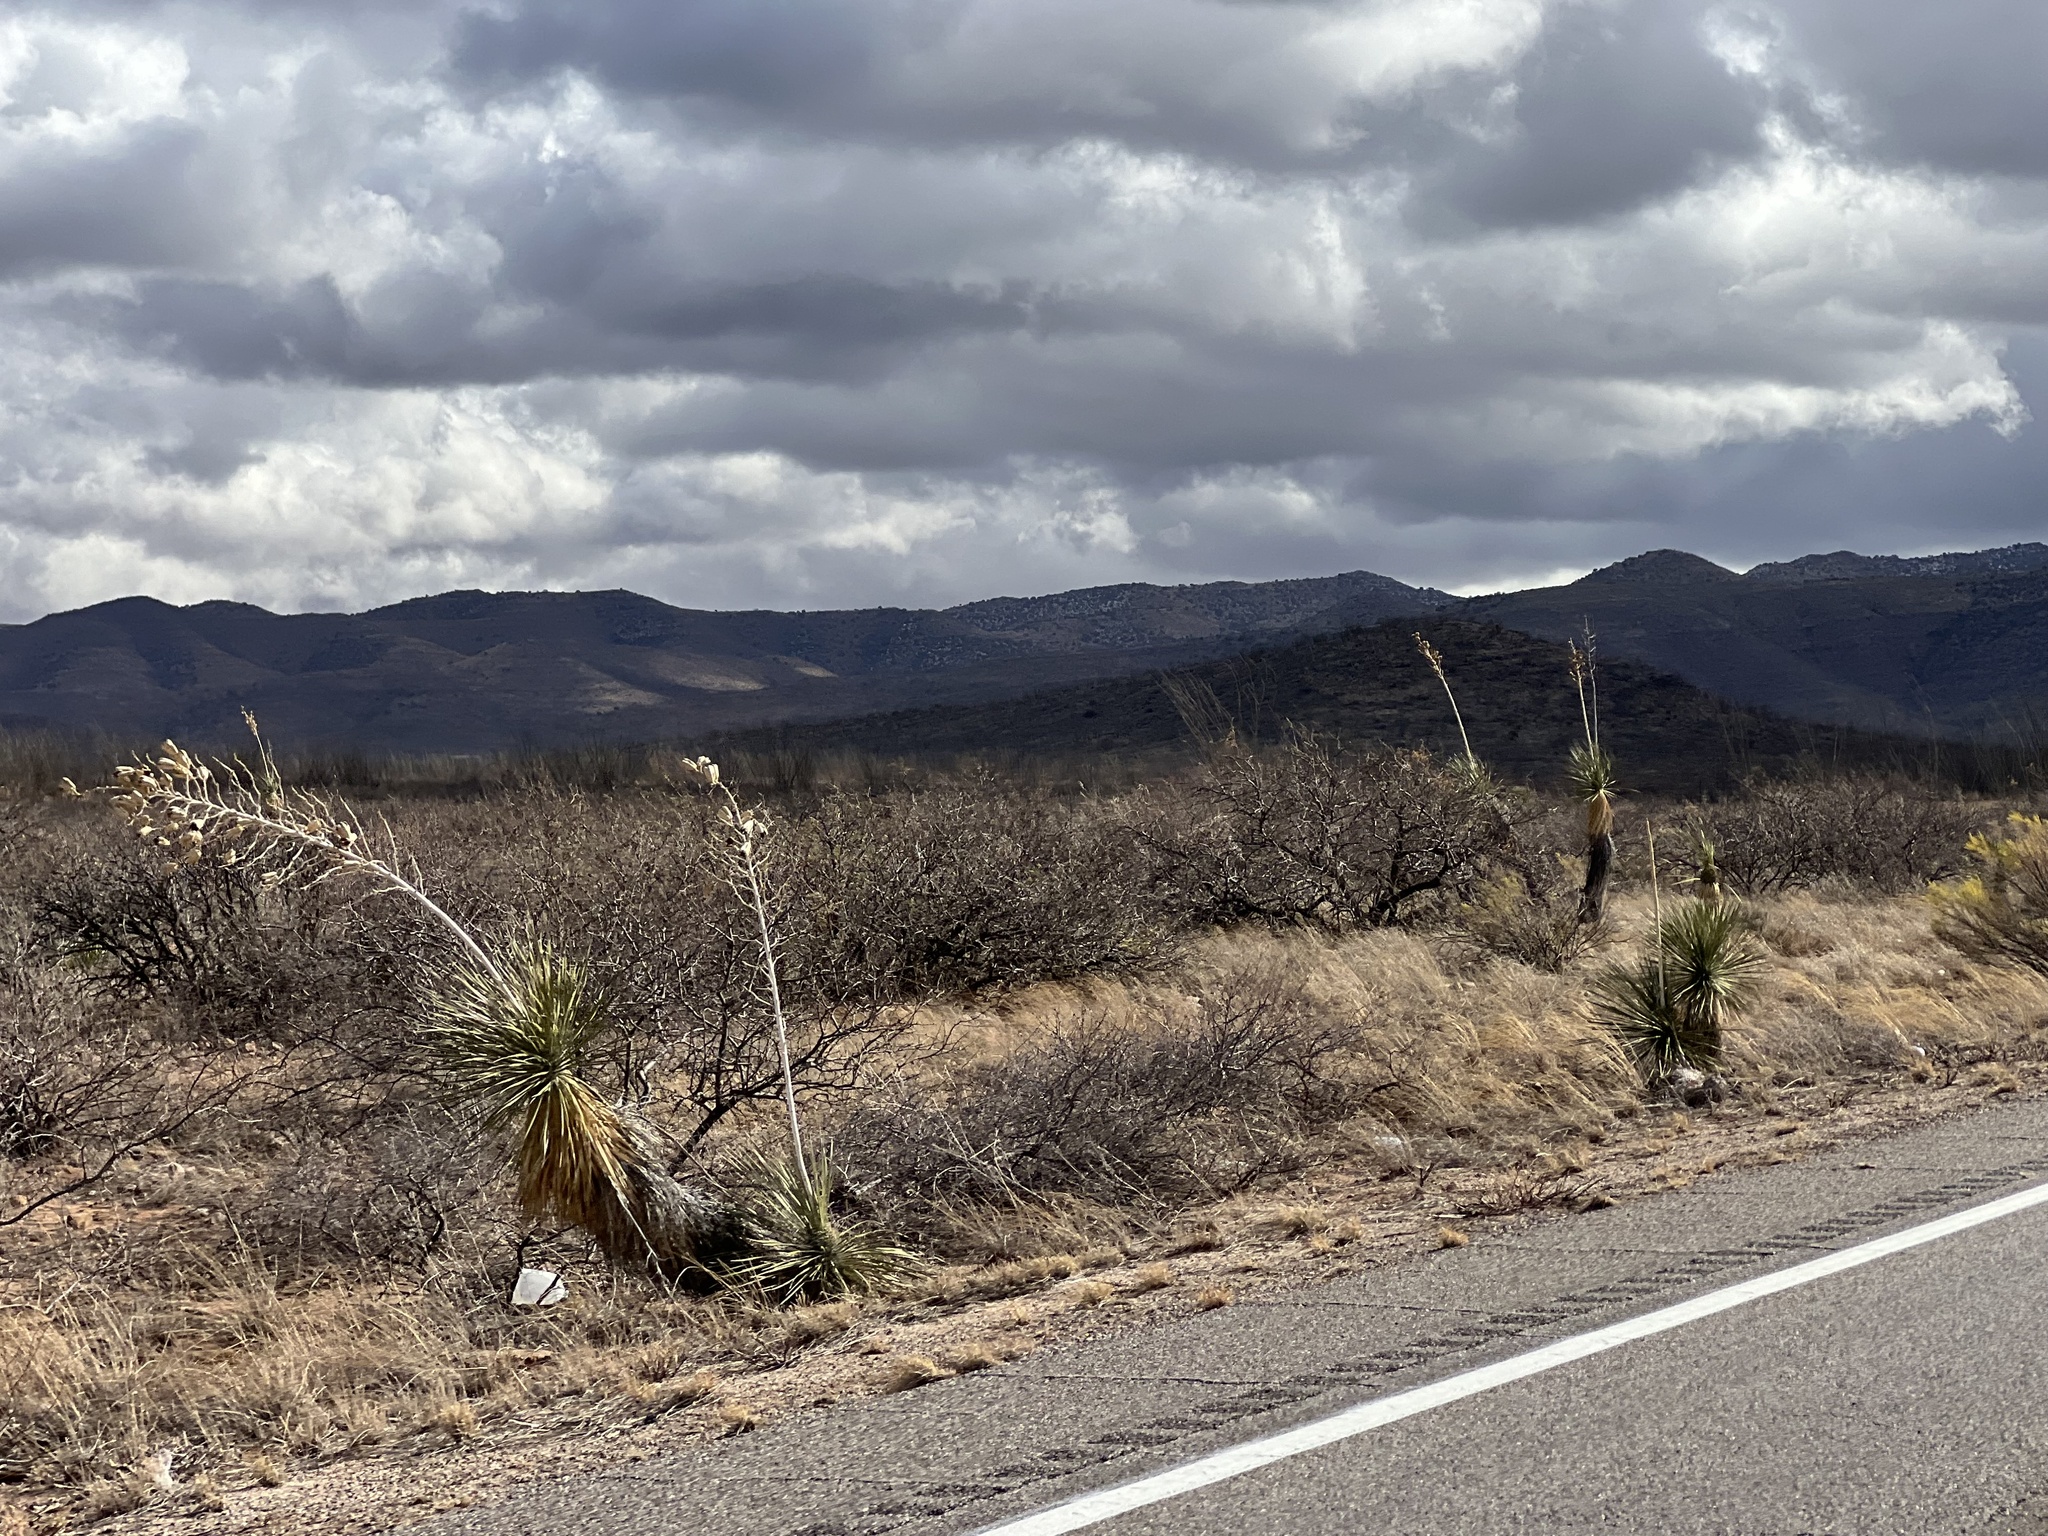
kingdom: Plantae
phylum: Tracheophyta
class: Liliopsida
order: Asparagales
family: Asparagaceae
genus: Yucca
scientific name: Yucca elata
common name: Palmella
